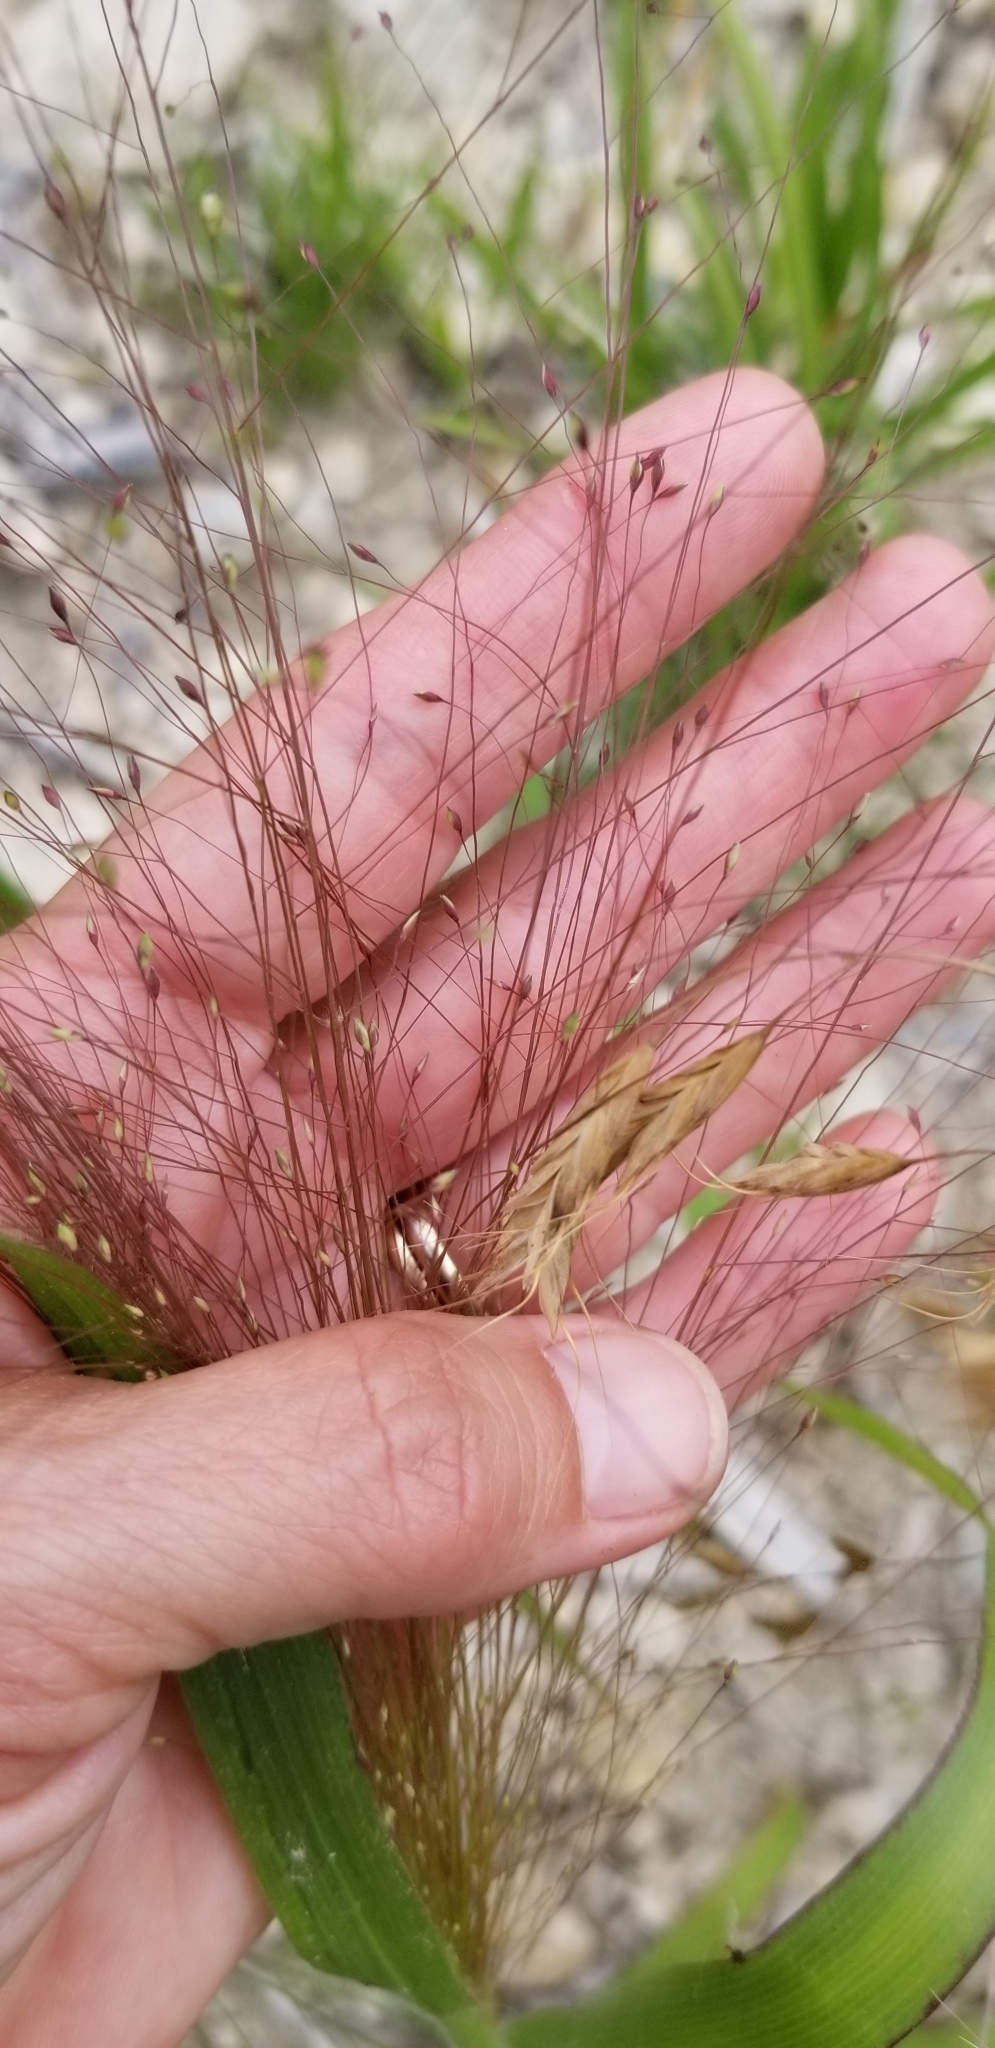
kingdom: Plantae
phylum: Tracheophyta
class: Liliopsida
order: Poales
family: Poaceae
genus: Panicum
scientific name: Panicum capillare
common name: Witch-grass
